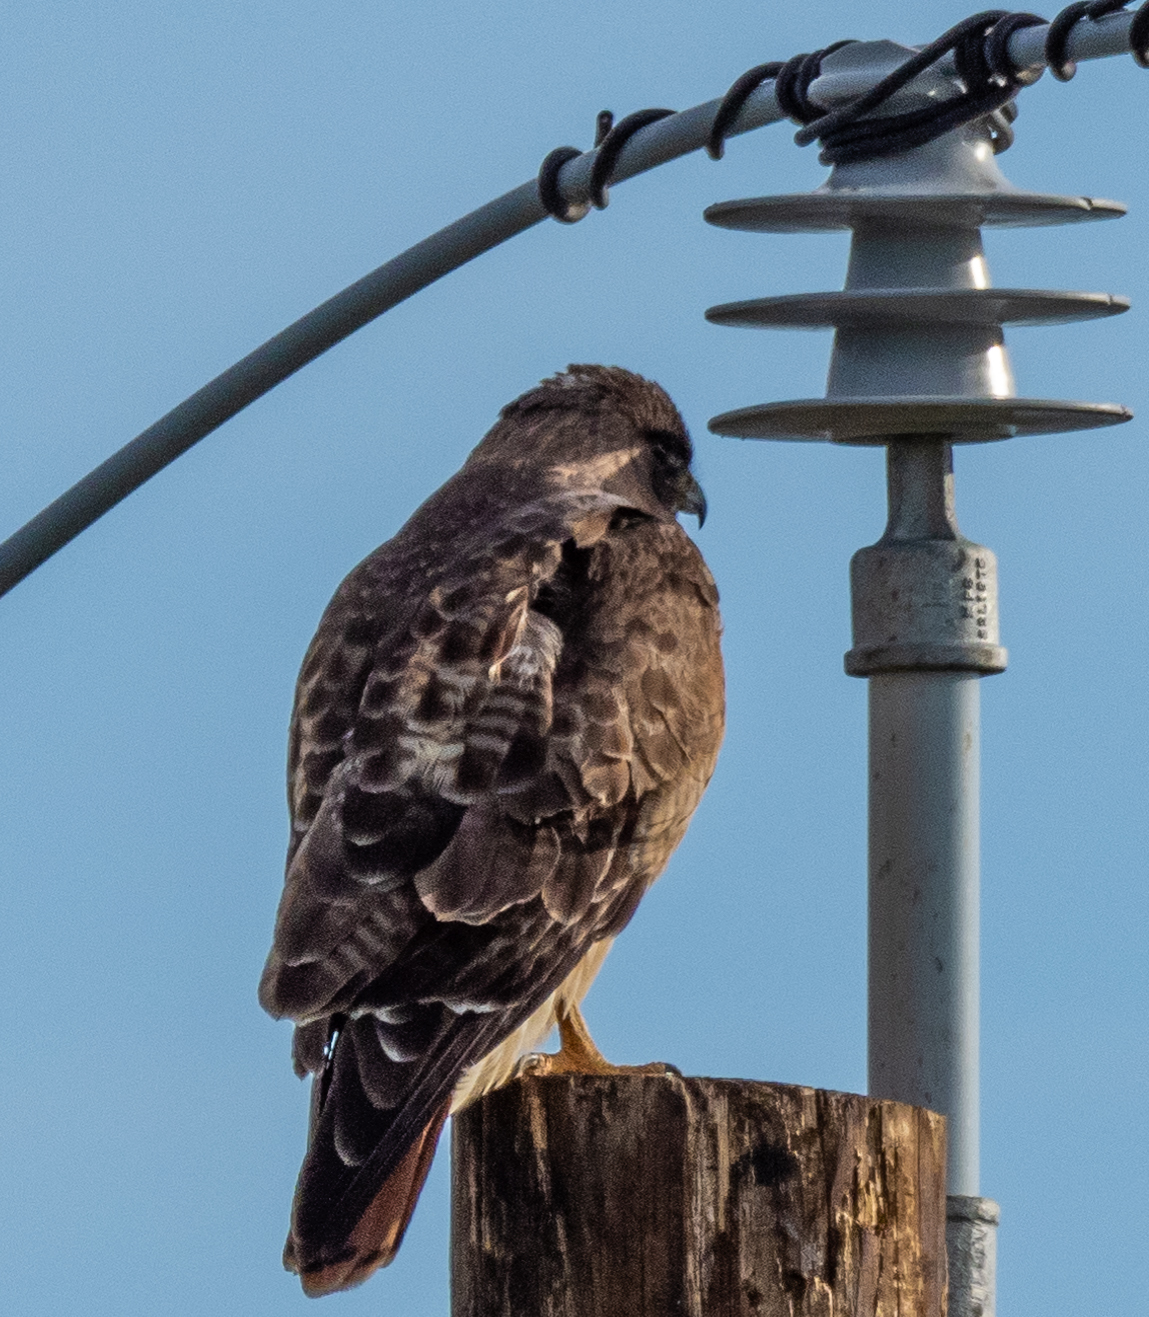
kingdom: Animalia
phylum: Chordata
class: Aves
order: Accipitriformes
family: Accipitridae
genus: Buteo
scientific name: Buteo jamaicensis
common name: Red-tailed hawk
